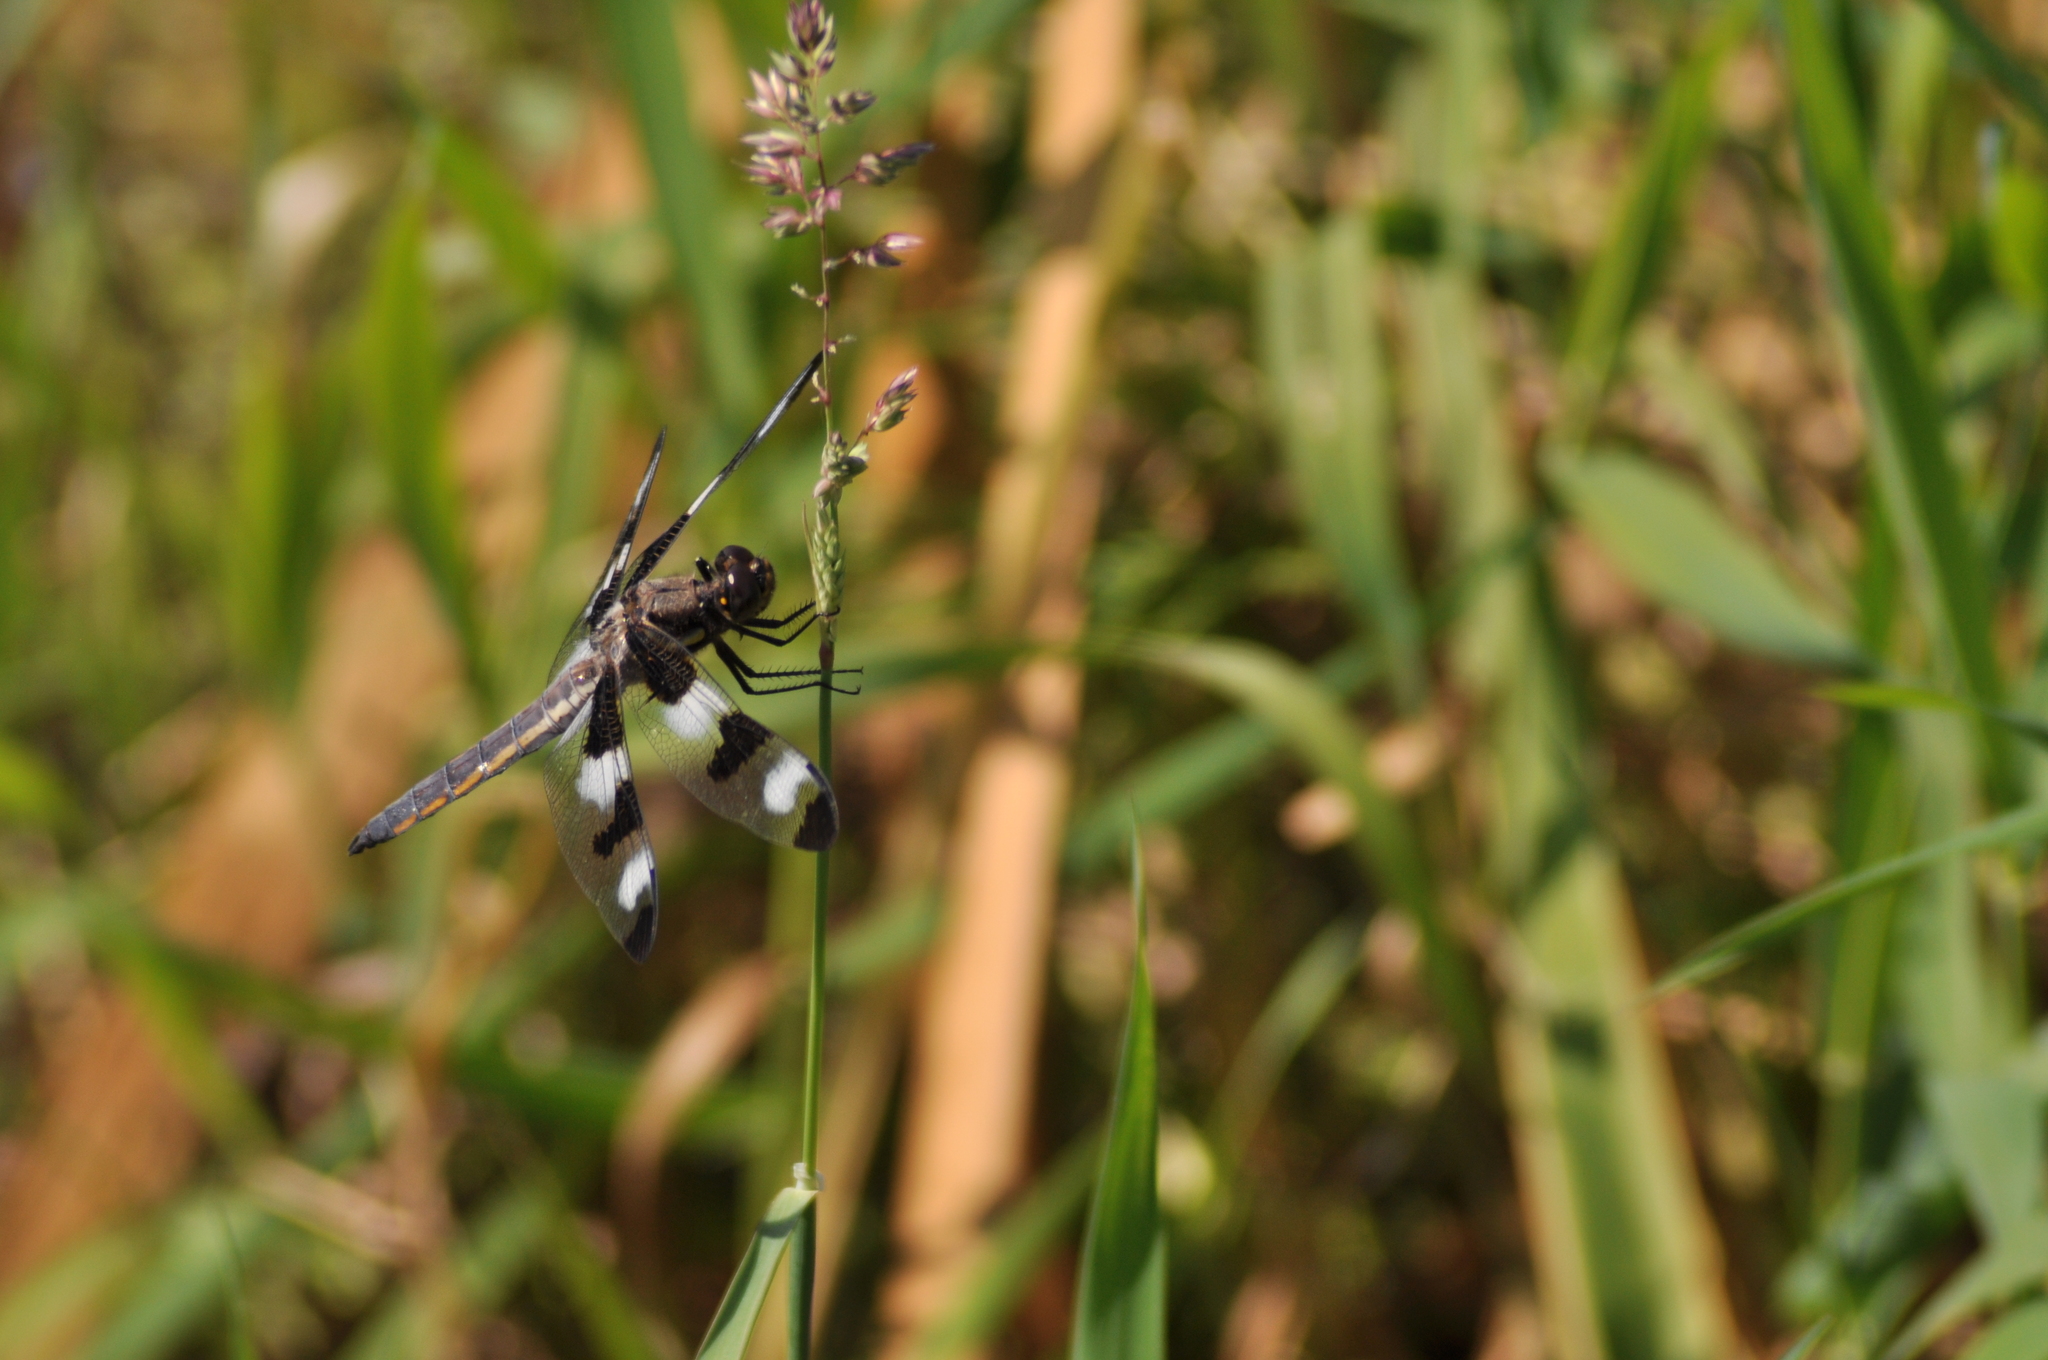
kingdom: Animalia
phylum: Arthropoda
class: Insecta
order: Odonata
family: Libellulidae
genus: Libellula
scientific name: Libellula pulchella
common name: Twelve-spotted skimmer
